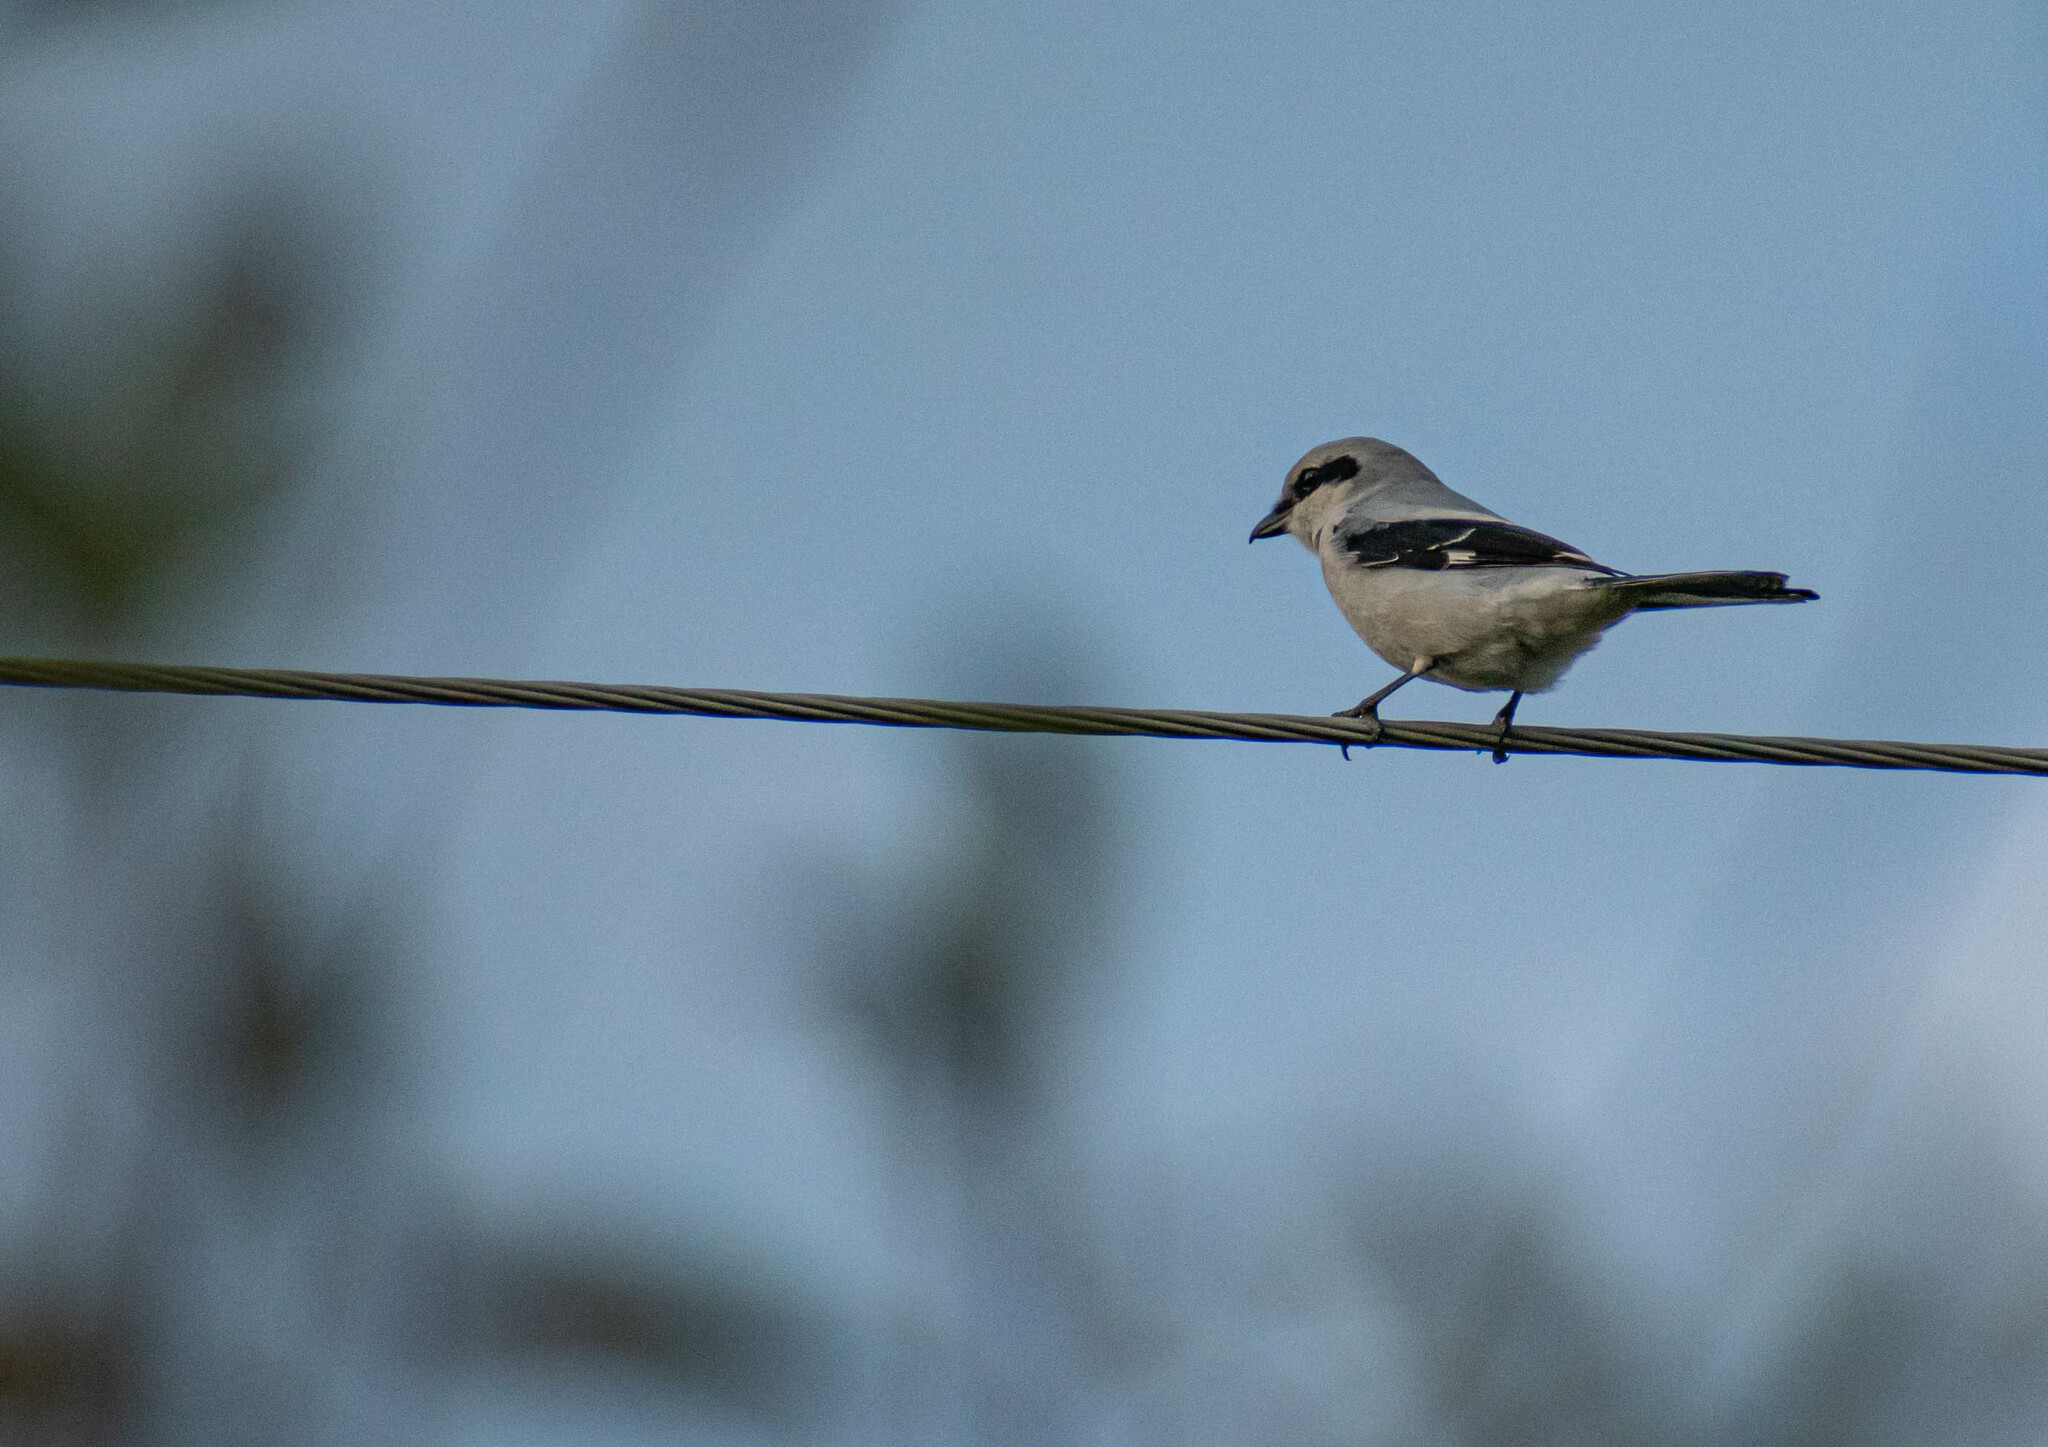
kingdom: Animalia
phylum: Chordata
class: Aves
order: Passeriformes
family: Laniidae
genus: Lanius
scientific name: Lanius excubitor
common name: Great grey shrike
